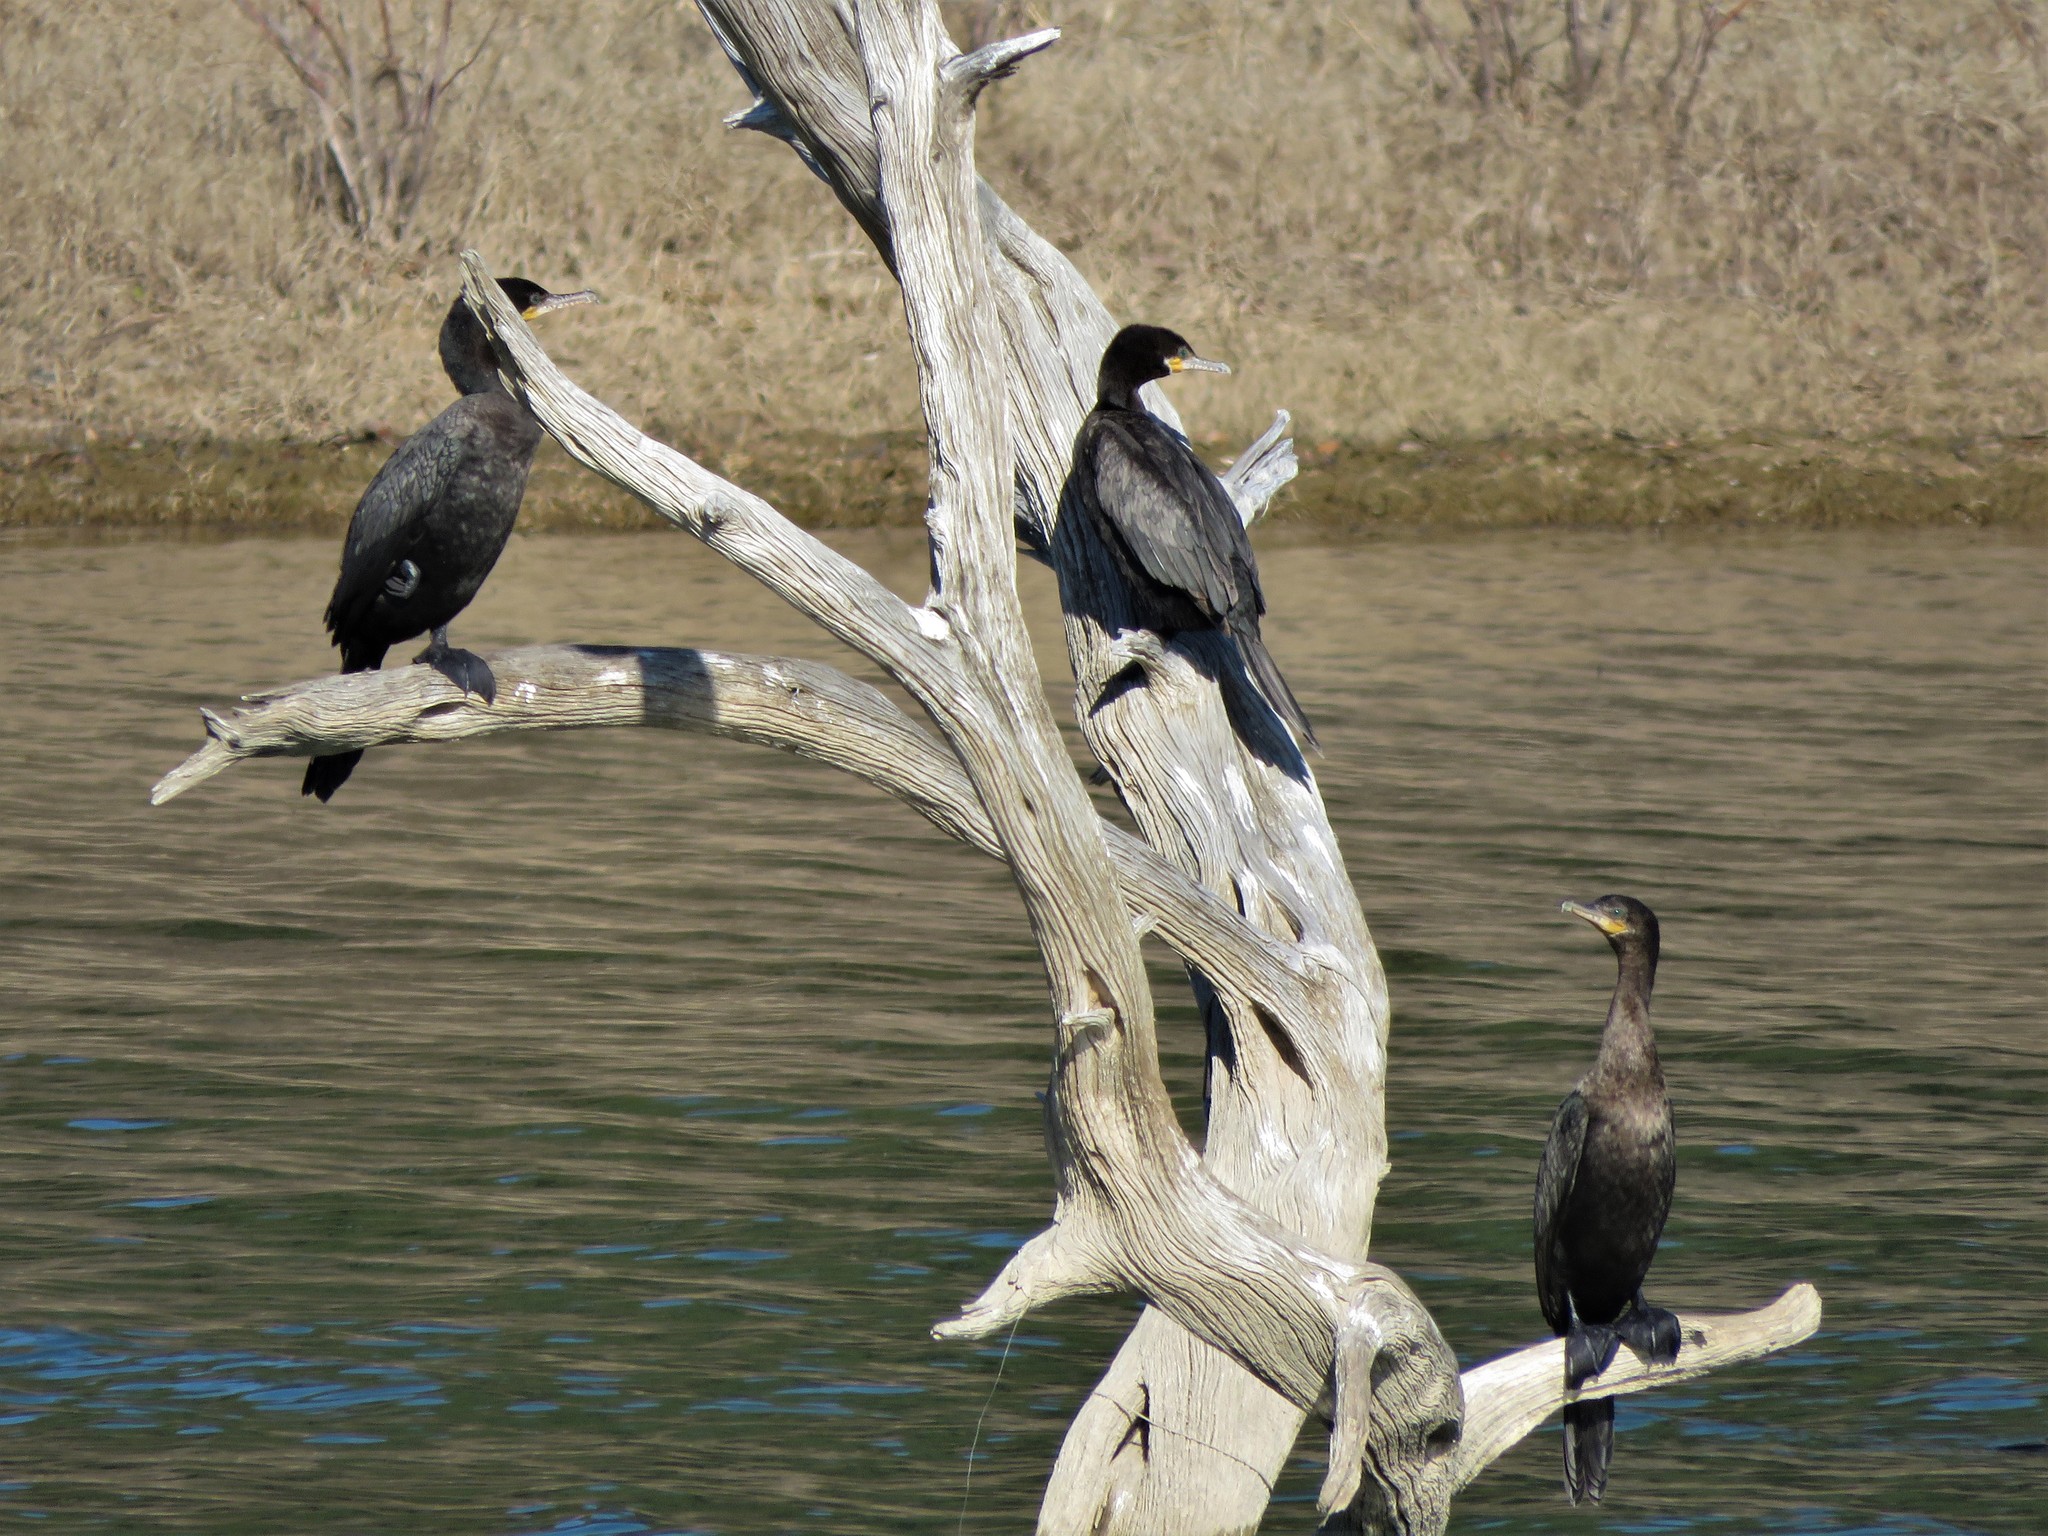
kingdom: Animalia
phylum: Chordata
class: Aves
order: Suliformes
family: Phalacrocoracidae
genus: Phalacrocorax
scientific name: Phalacrocorax brasilianus
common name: Neotropic cormorant
